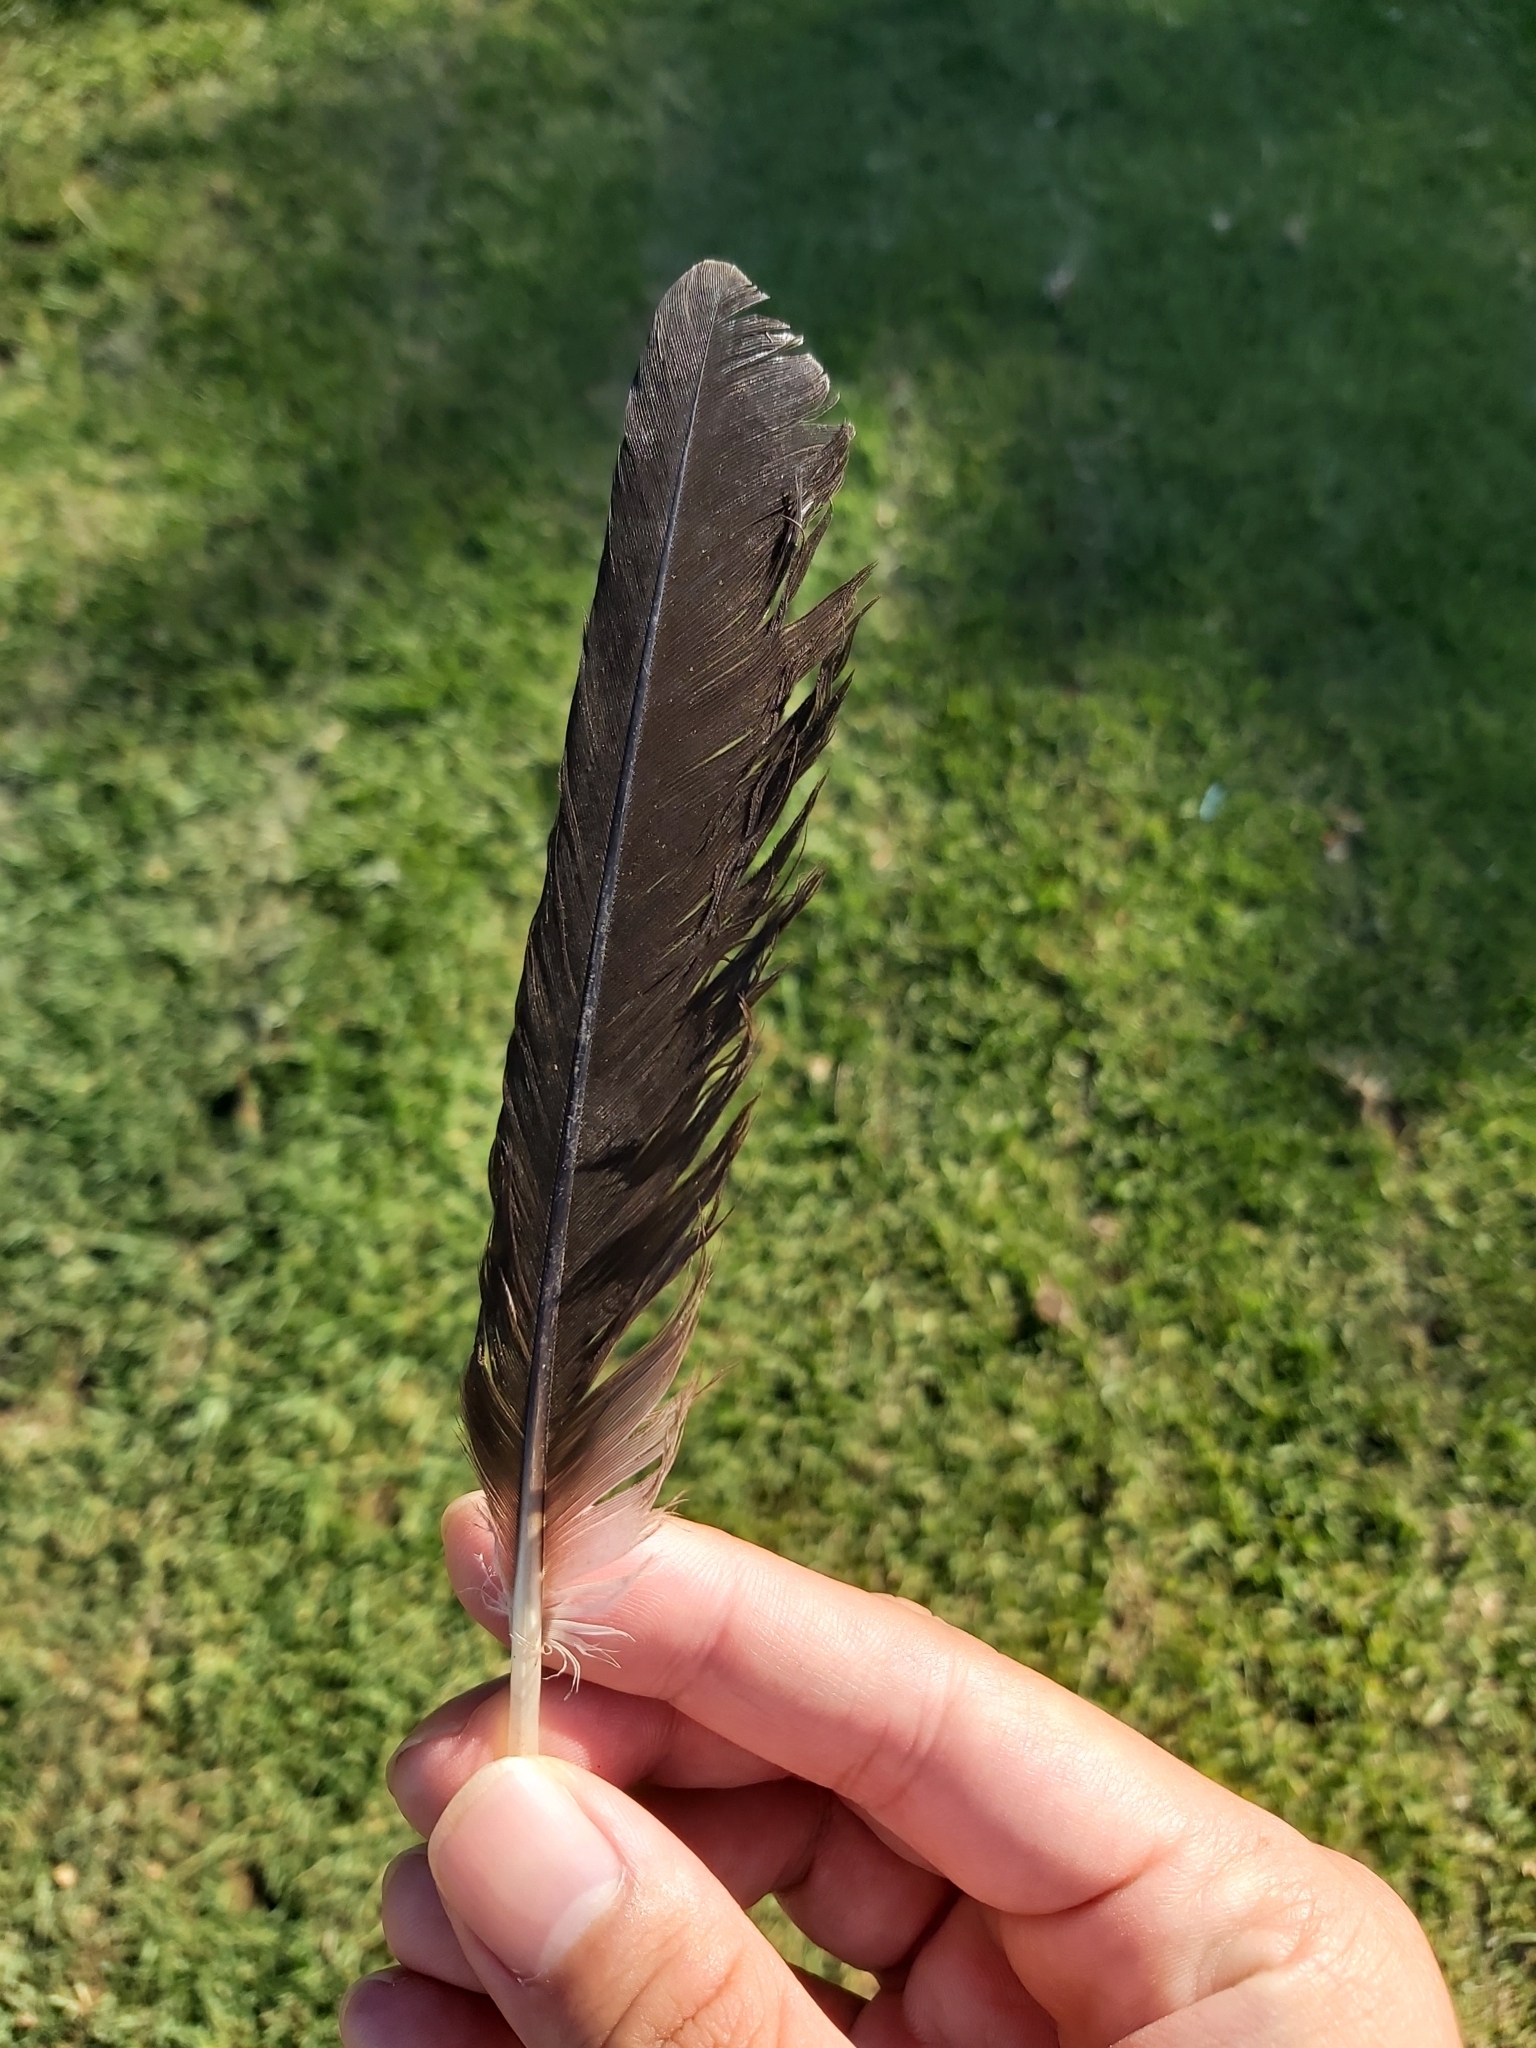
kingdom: Animalia
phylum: Chordata
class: Aves
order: Passeriformes
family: Cracticidae
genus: Gymnorhina
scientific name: Gymnorhina tibicen
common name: Australian magpie
